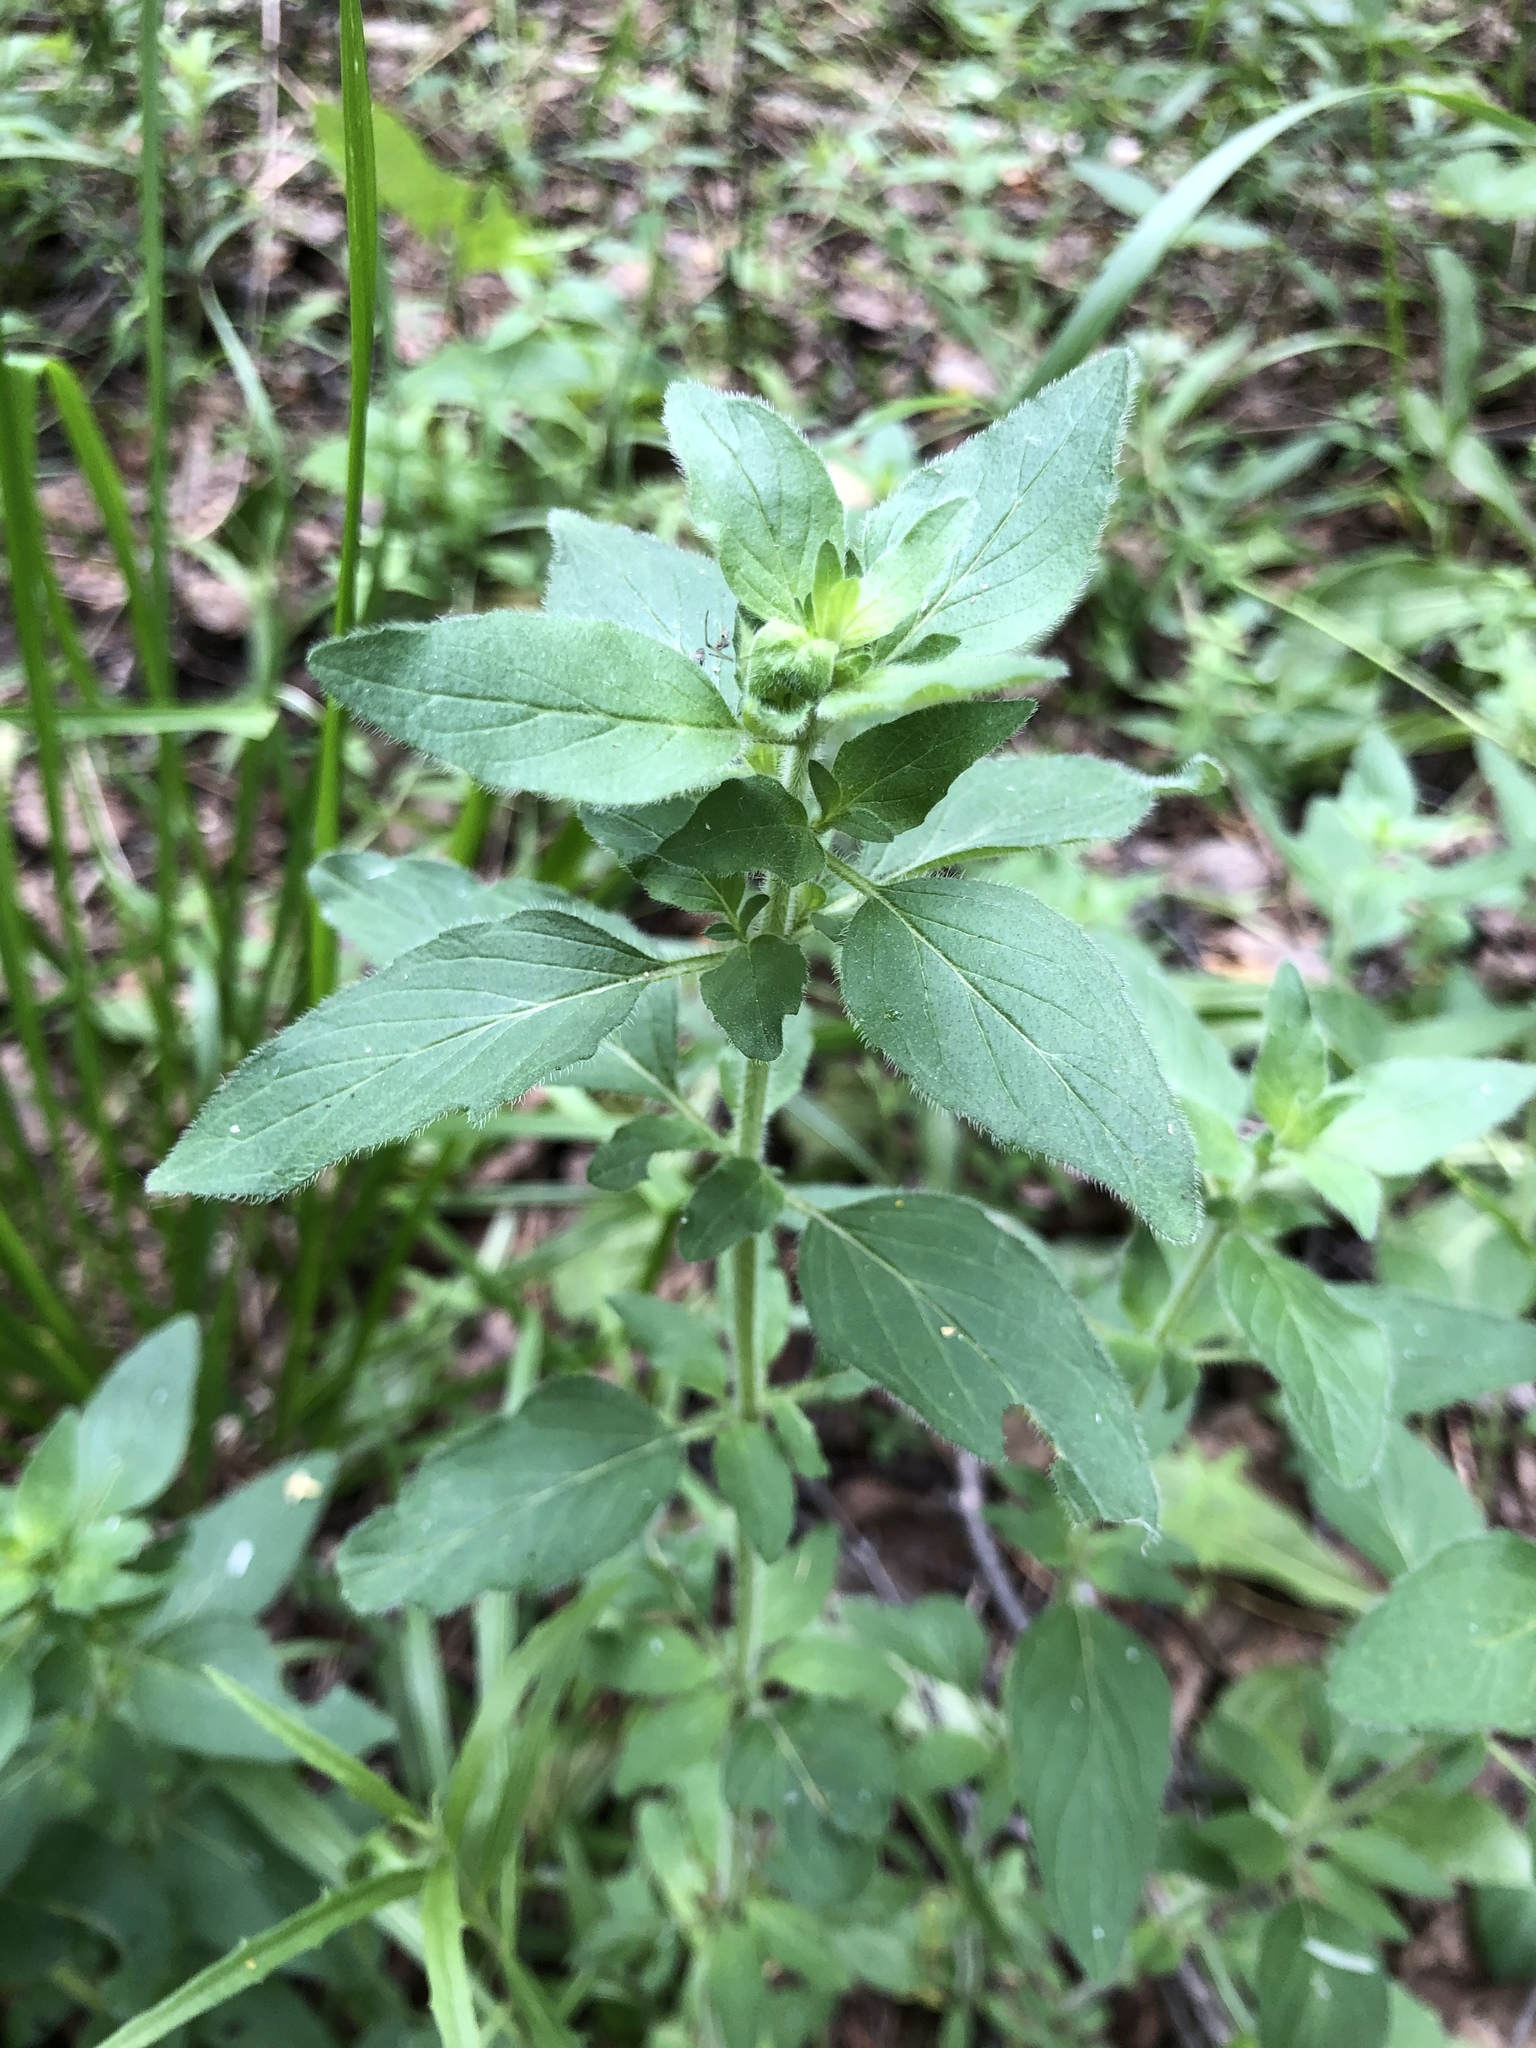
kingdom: Plantae
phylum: Tracheophyta
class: Magnoliopsida
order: Lamiales
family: Lamiaceae
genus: Origanum
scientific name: Origanum vulgare
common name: Wild marjoram
